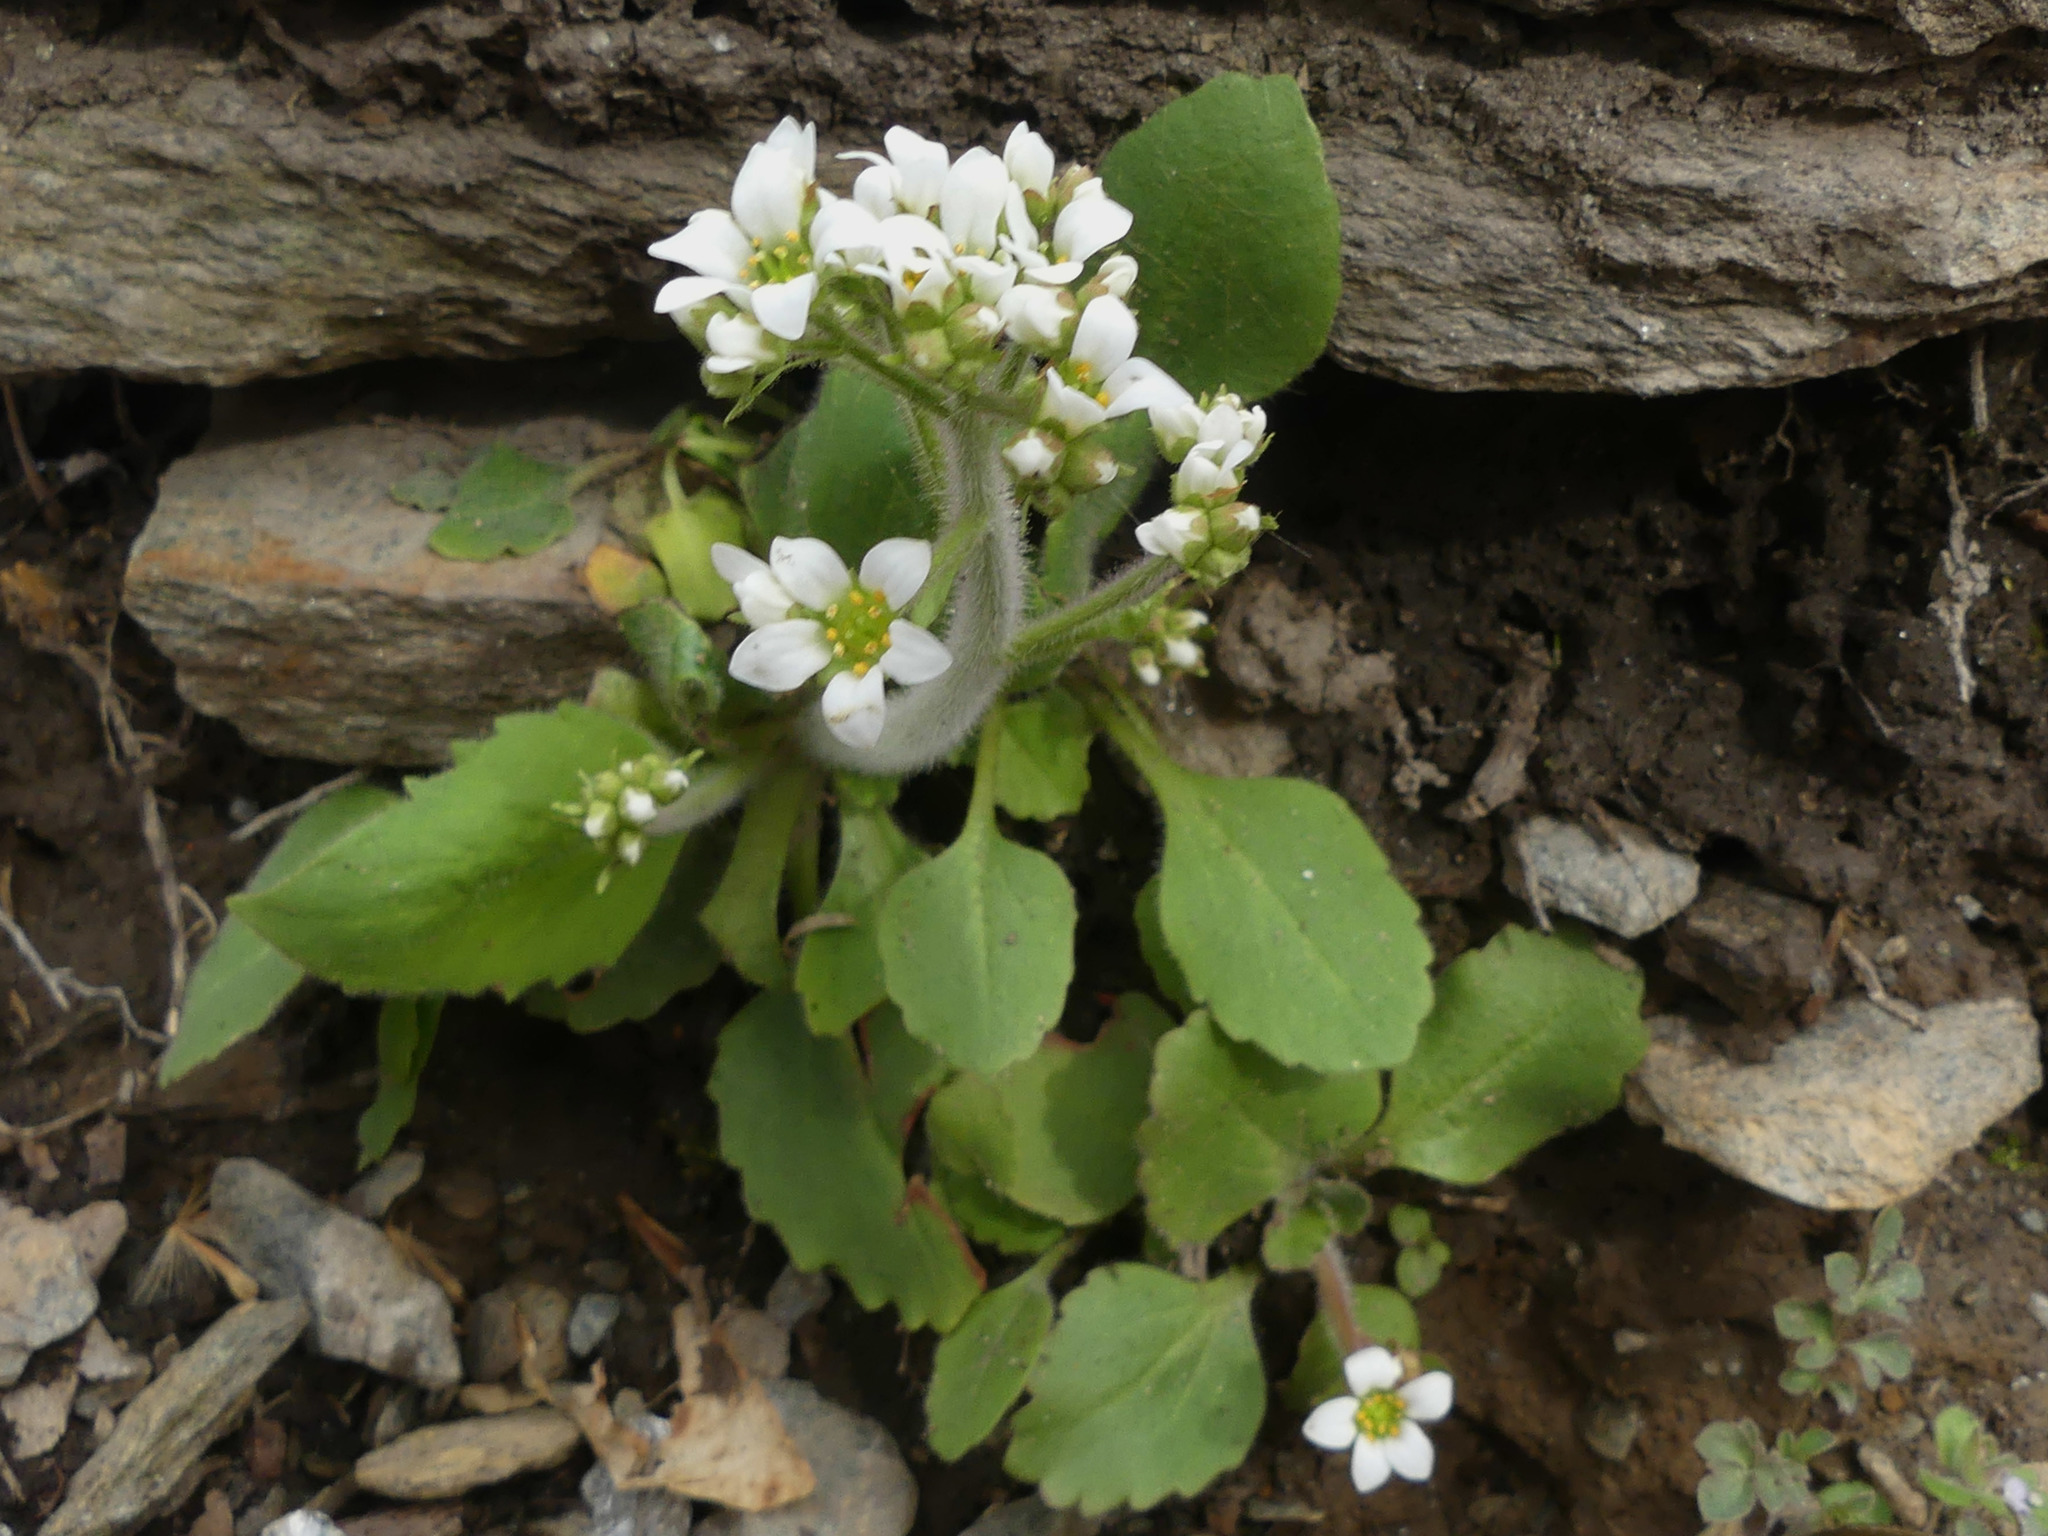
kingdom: Plantae
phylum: Tracheophyta
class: Magnoliopsida
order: Saxifragales
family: Saxifragaceae
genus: Micranthes
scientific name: Micranthes virginiensis
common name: Early saxifrage
